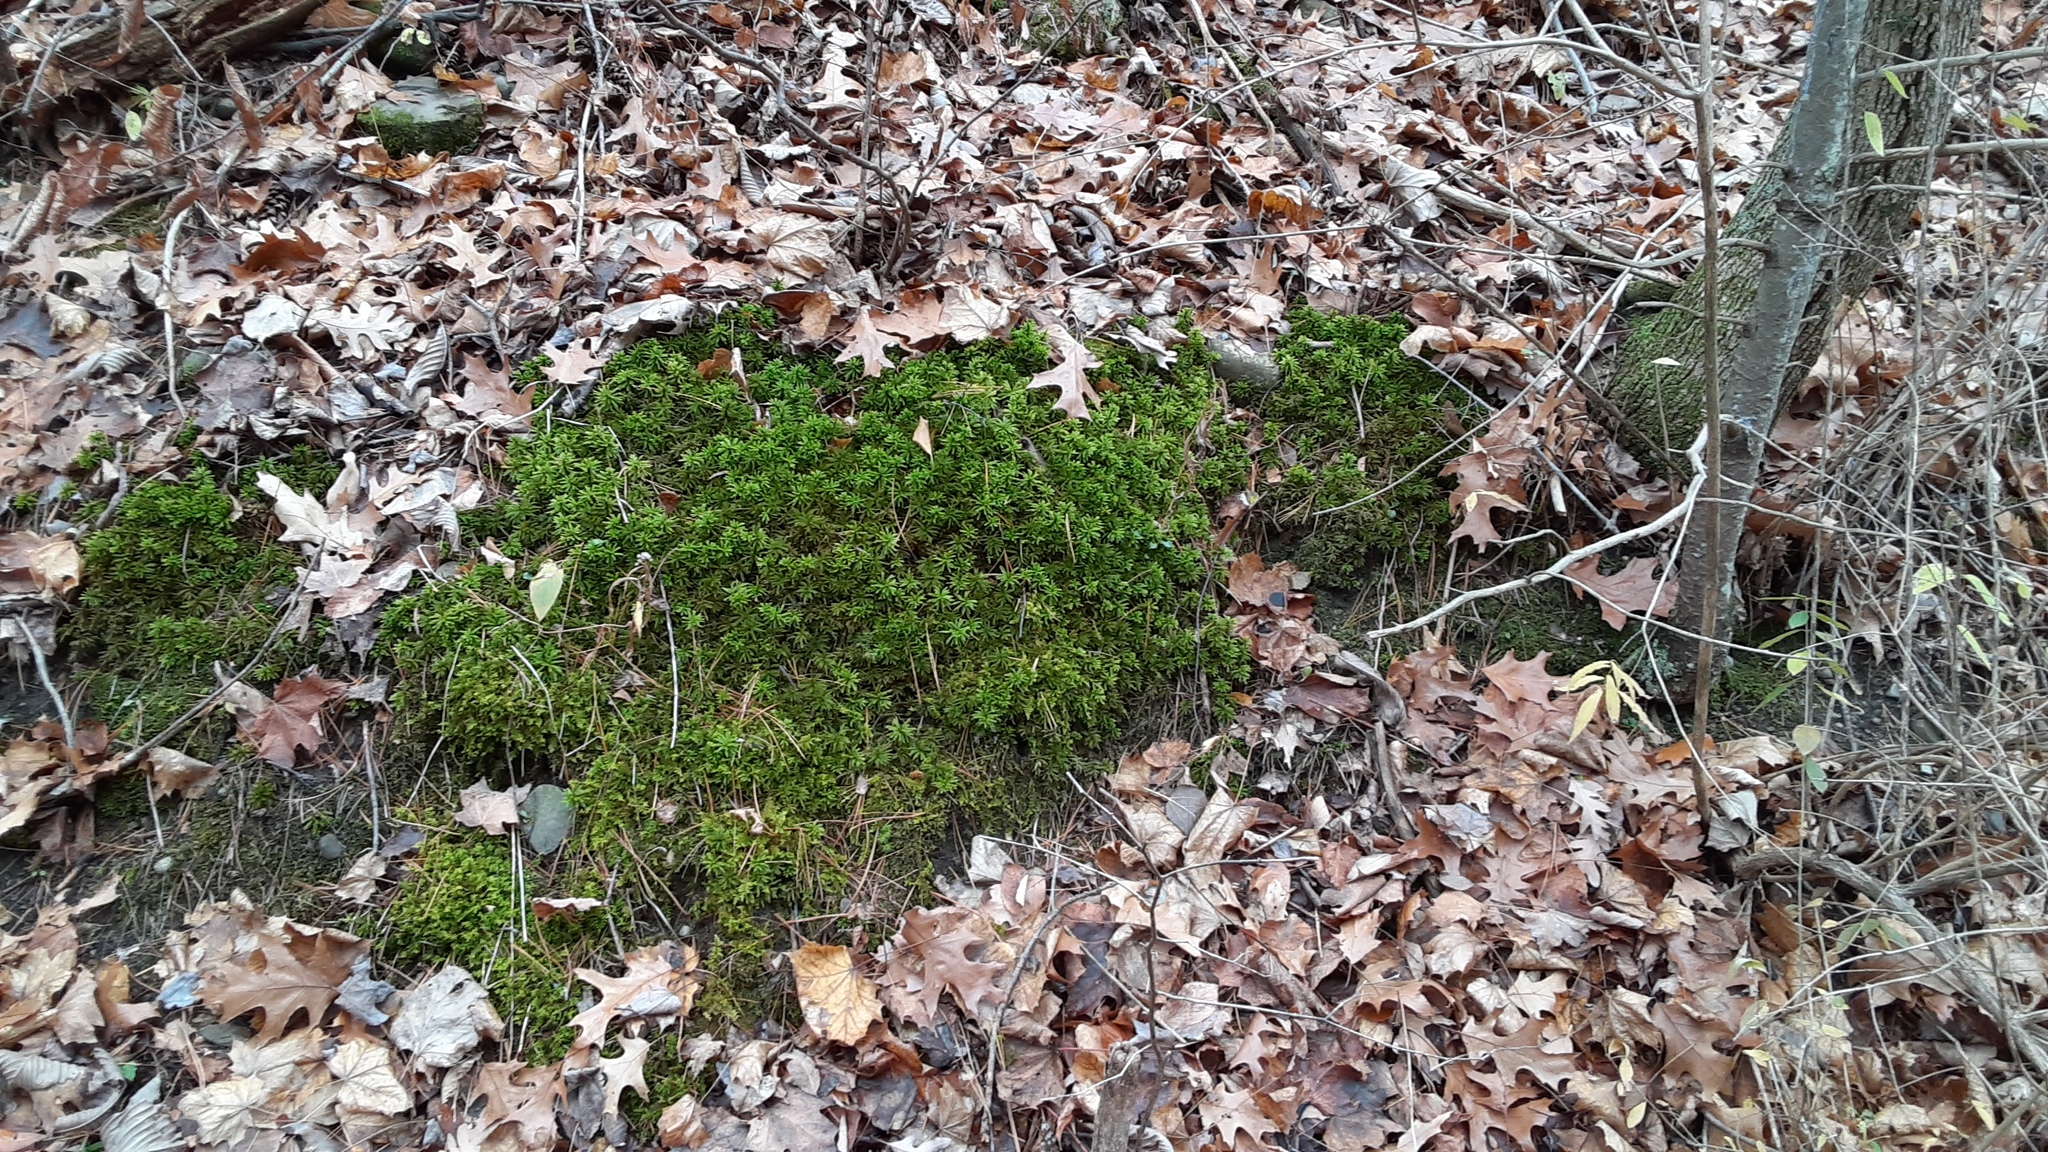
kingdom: Plantae
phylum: Bryophyta
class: Bryopsida
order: Hypnales
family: Climaciaceae
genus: Climacium
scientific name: Climacium americanum
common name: American tree moss
